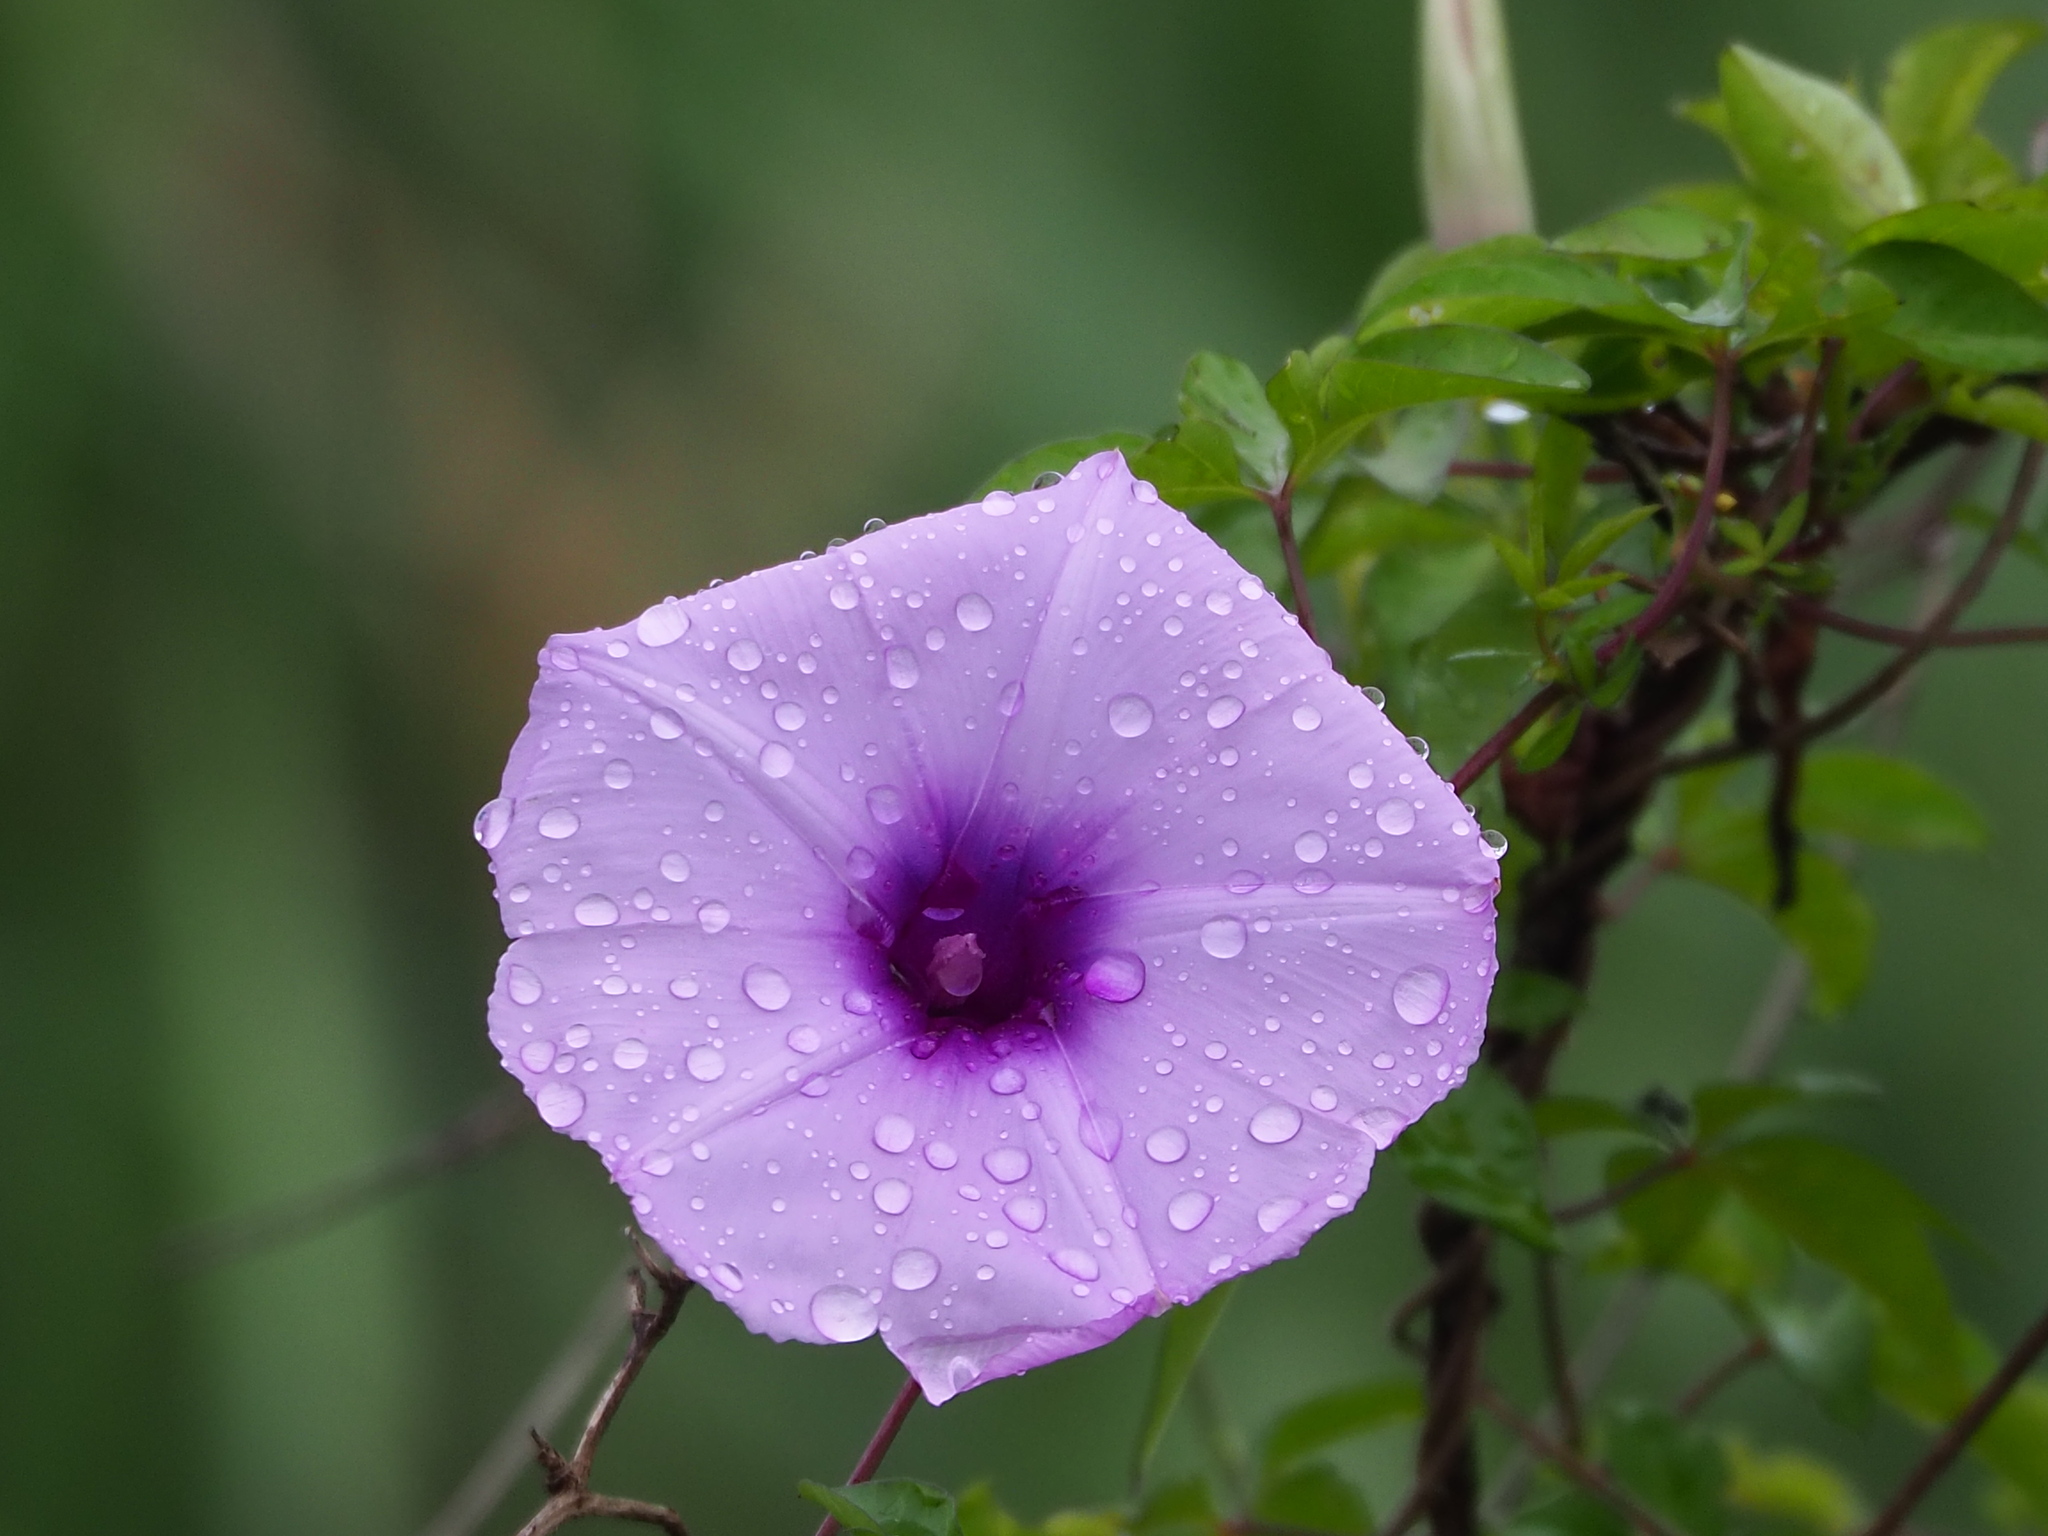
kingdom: Plantae
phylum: Tracheophyta
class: Magnoliopsida
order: Solanales
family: Convolvulaceae
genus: Ipomoea
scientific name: Ipomoea cairica
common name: Mile a minute vine
